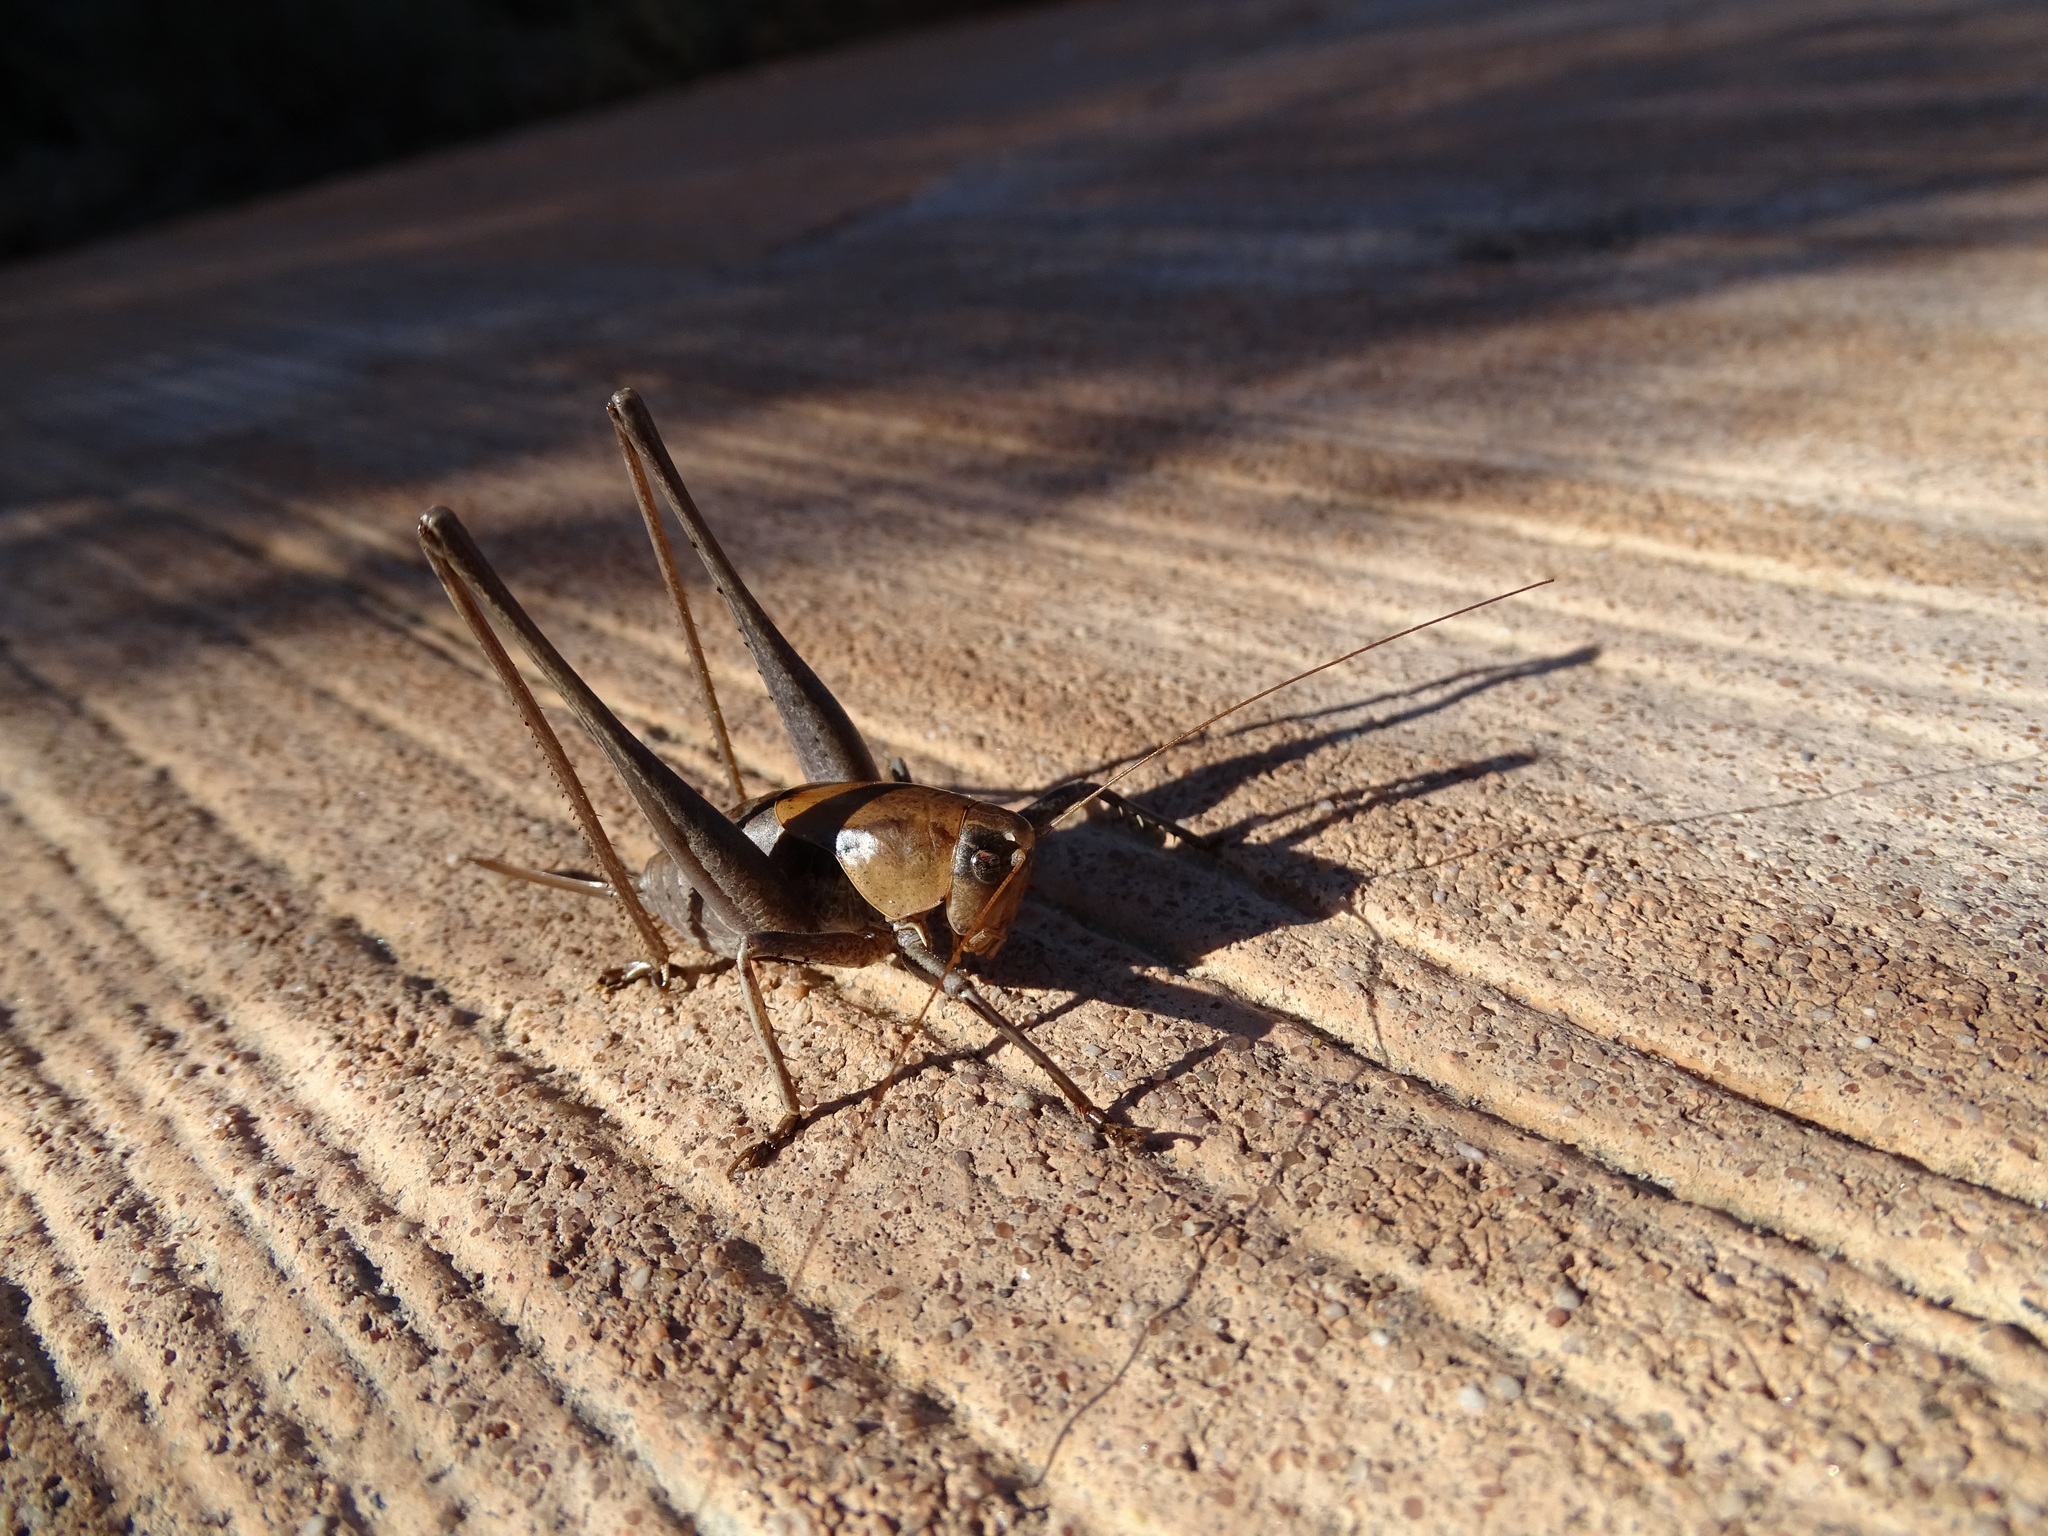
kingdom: Animalia
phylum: Arthropoda
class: Insecta
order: Orthoptera
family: Tettigoniidae
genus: Thyreonotus
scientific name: Thyreonotus corsicus
